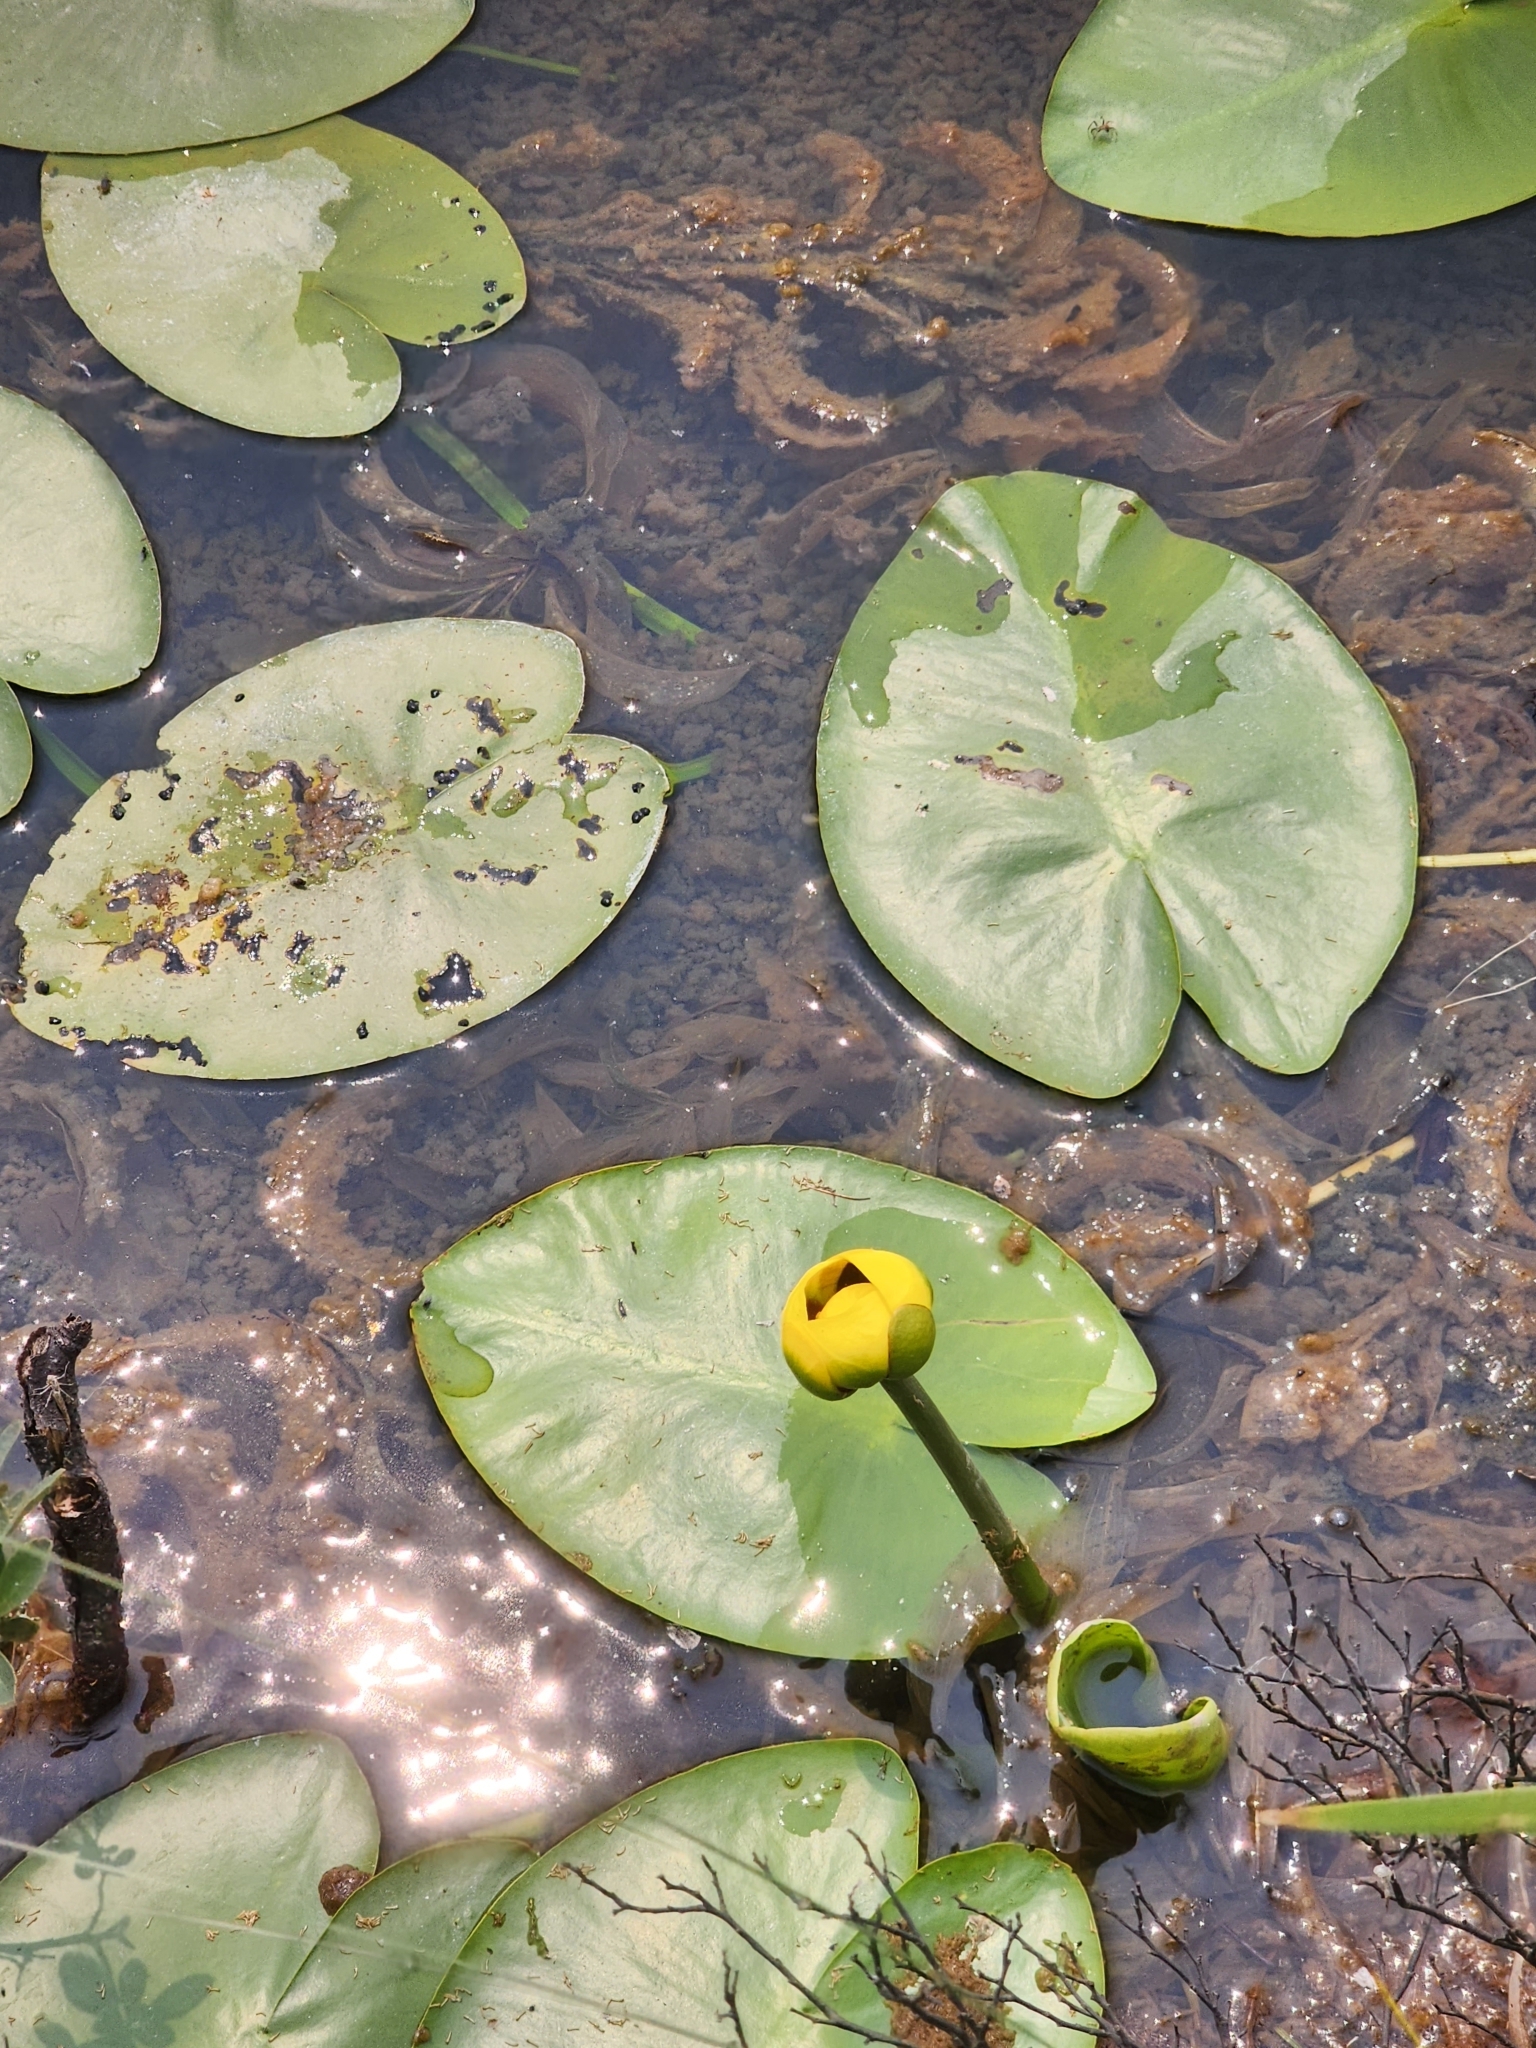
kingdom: Plantae
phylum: Tracheophyta
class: Magnoliopsida
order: Nymphaeales
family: Nymphaeaceae
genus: Nuphar
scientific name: Nuphar variegata
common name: Beaver-root
